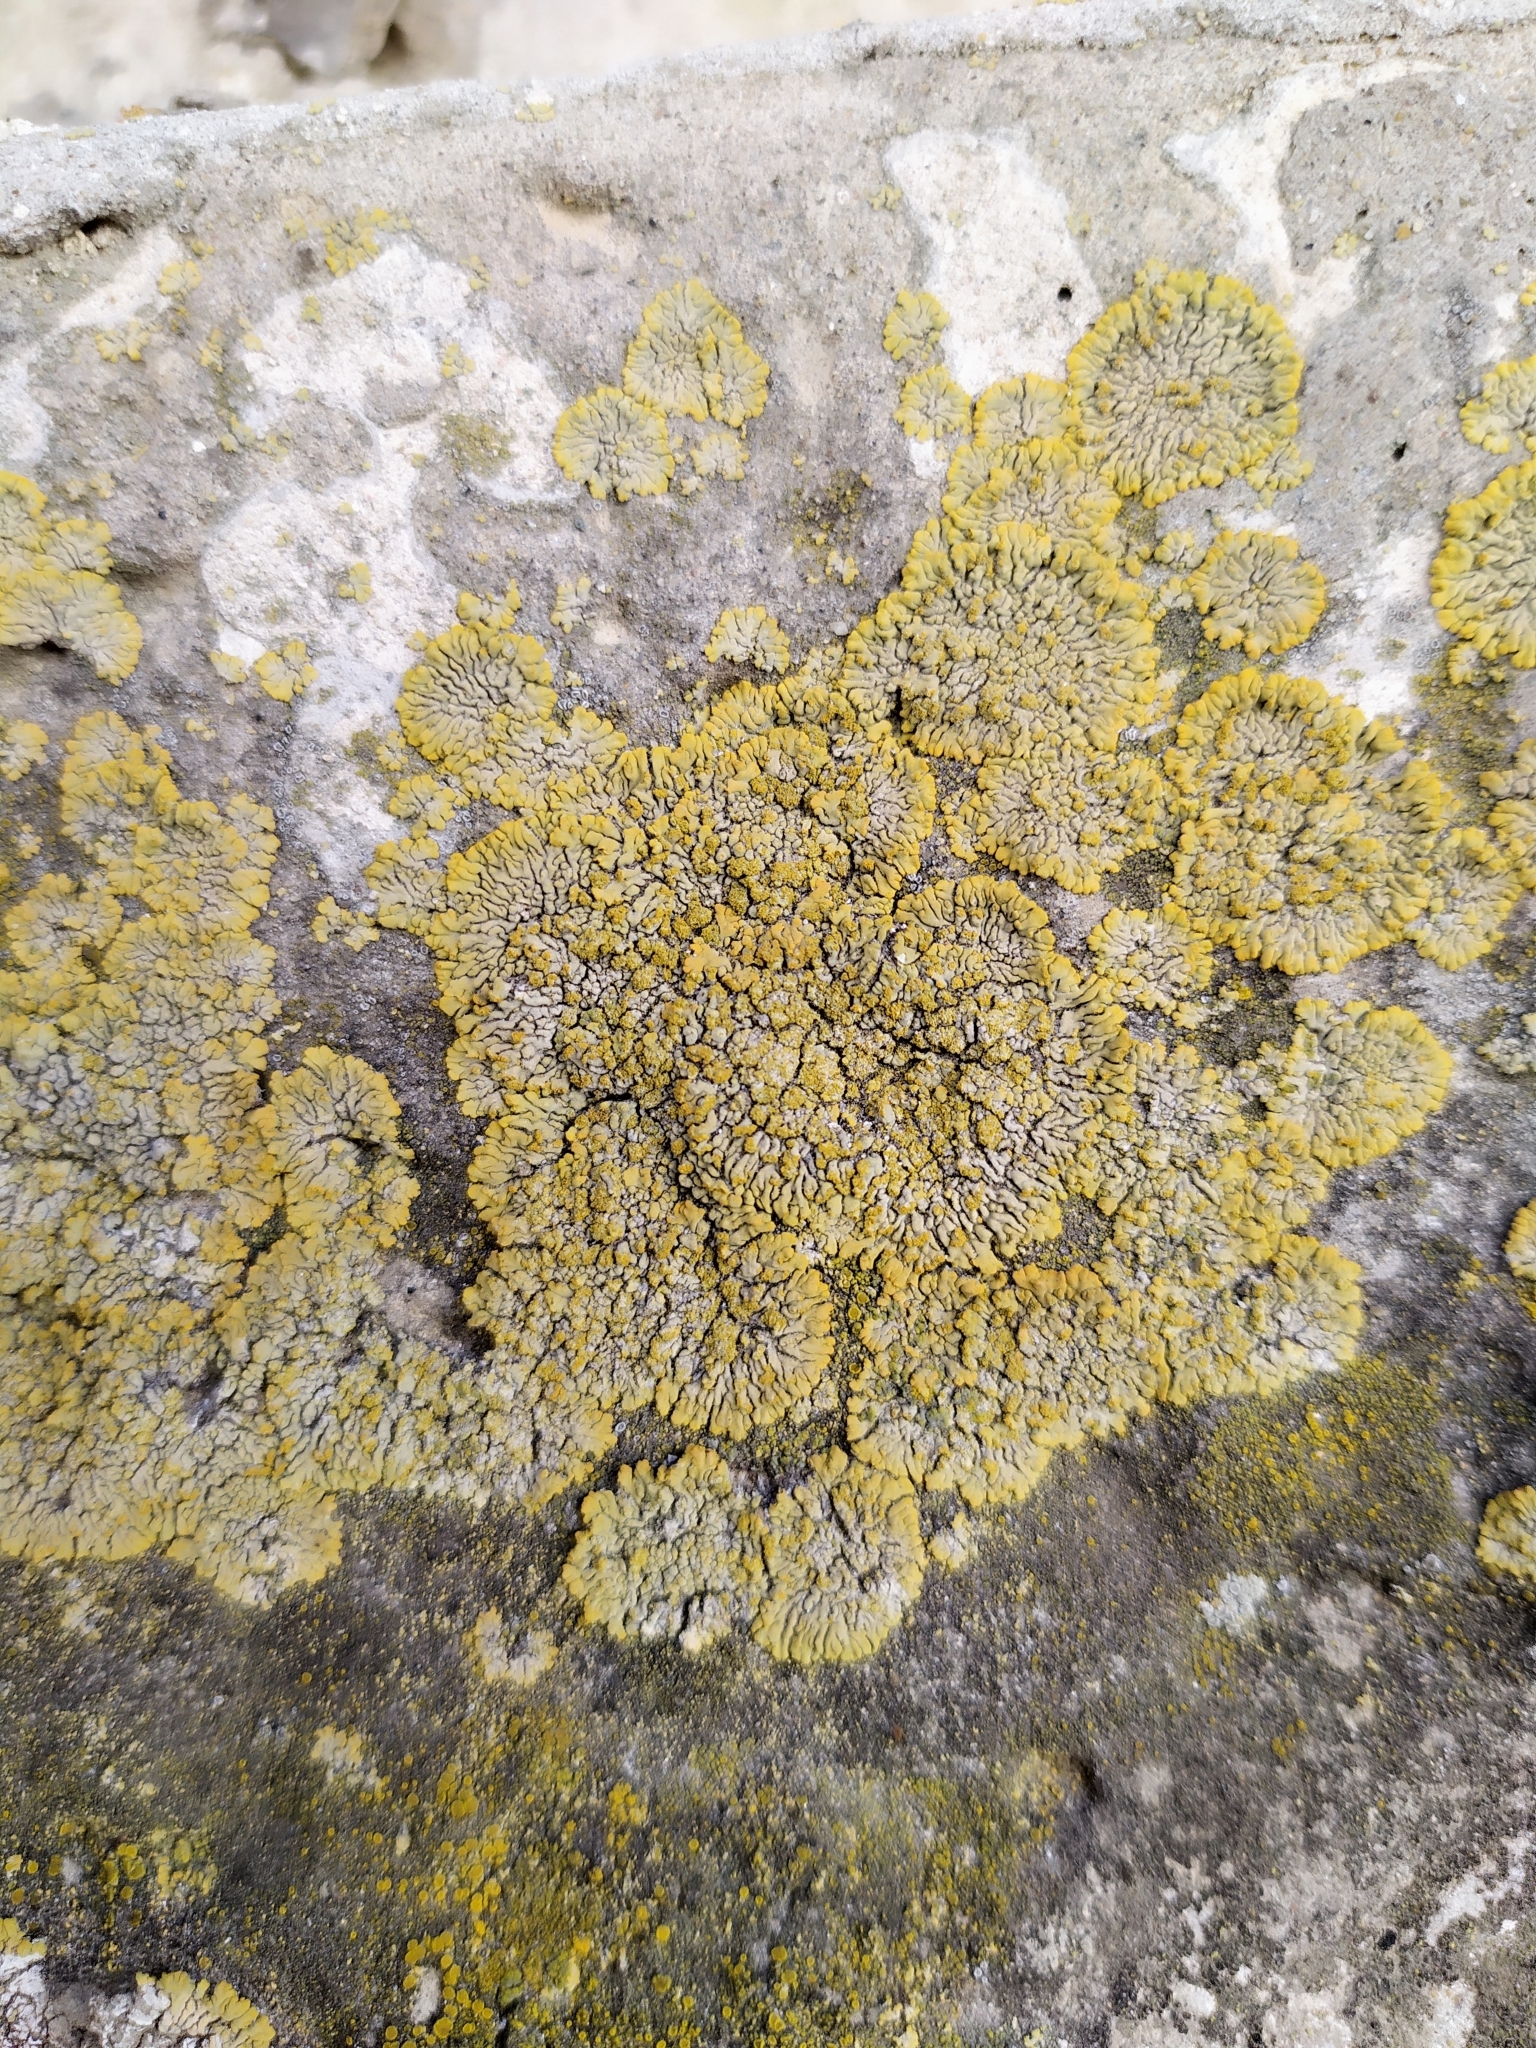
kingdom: Fungi
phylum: Ascomycota
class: Lecanoromycetes
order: Teloschistales
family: Teloschistaceae
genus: Calogaya
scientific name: Calogaya decipiens
